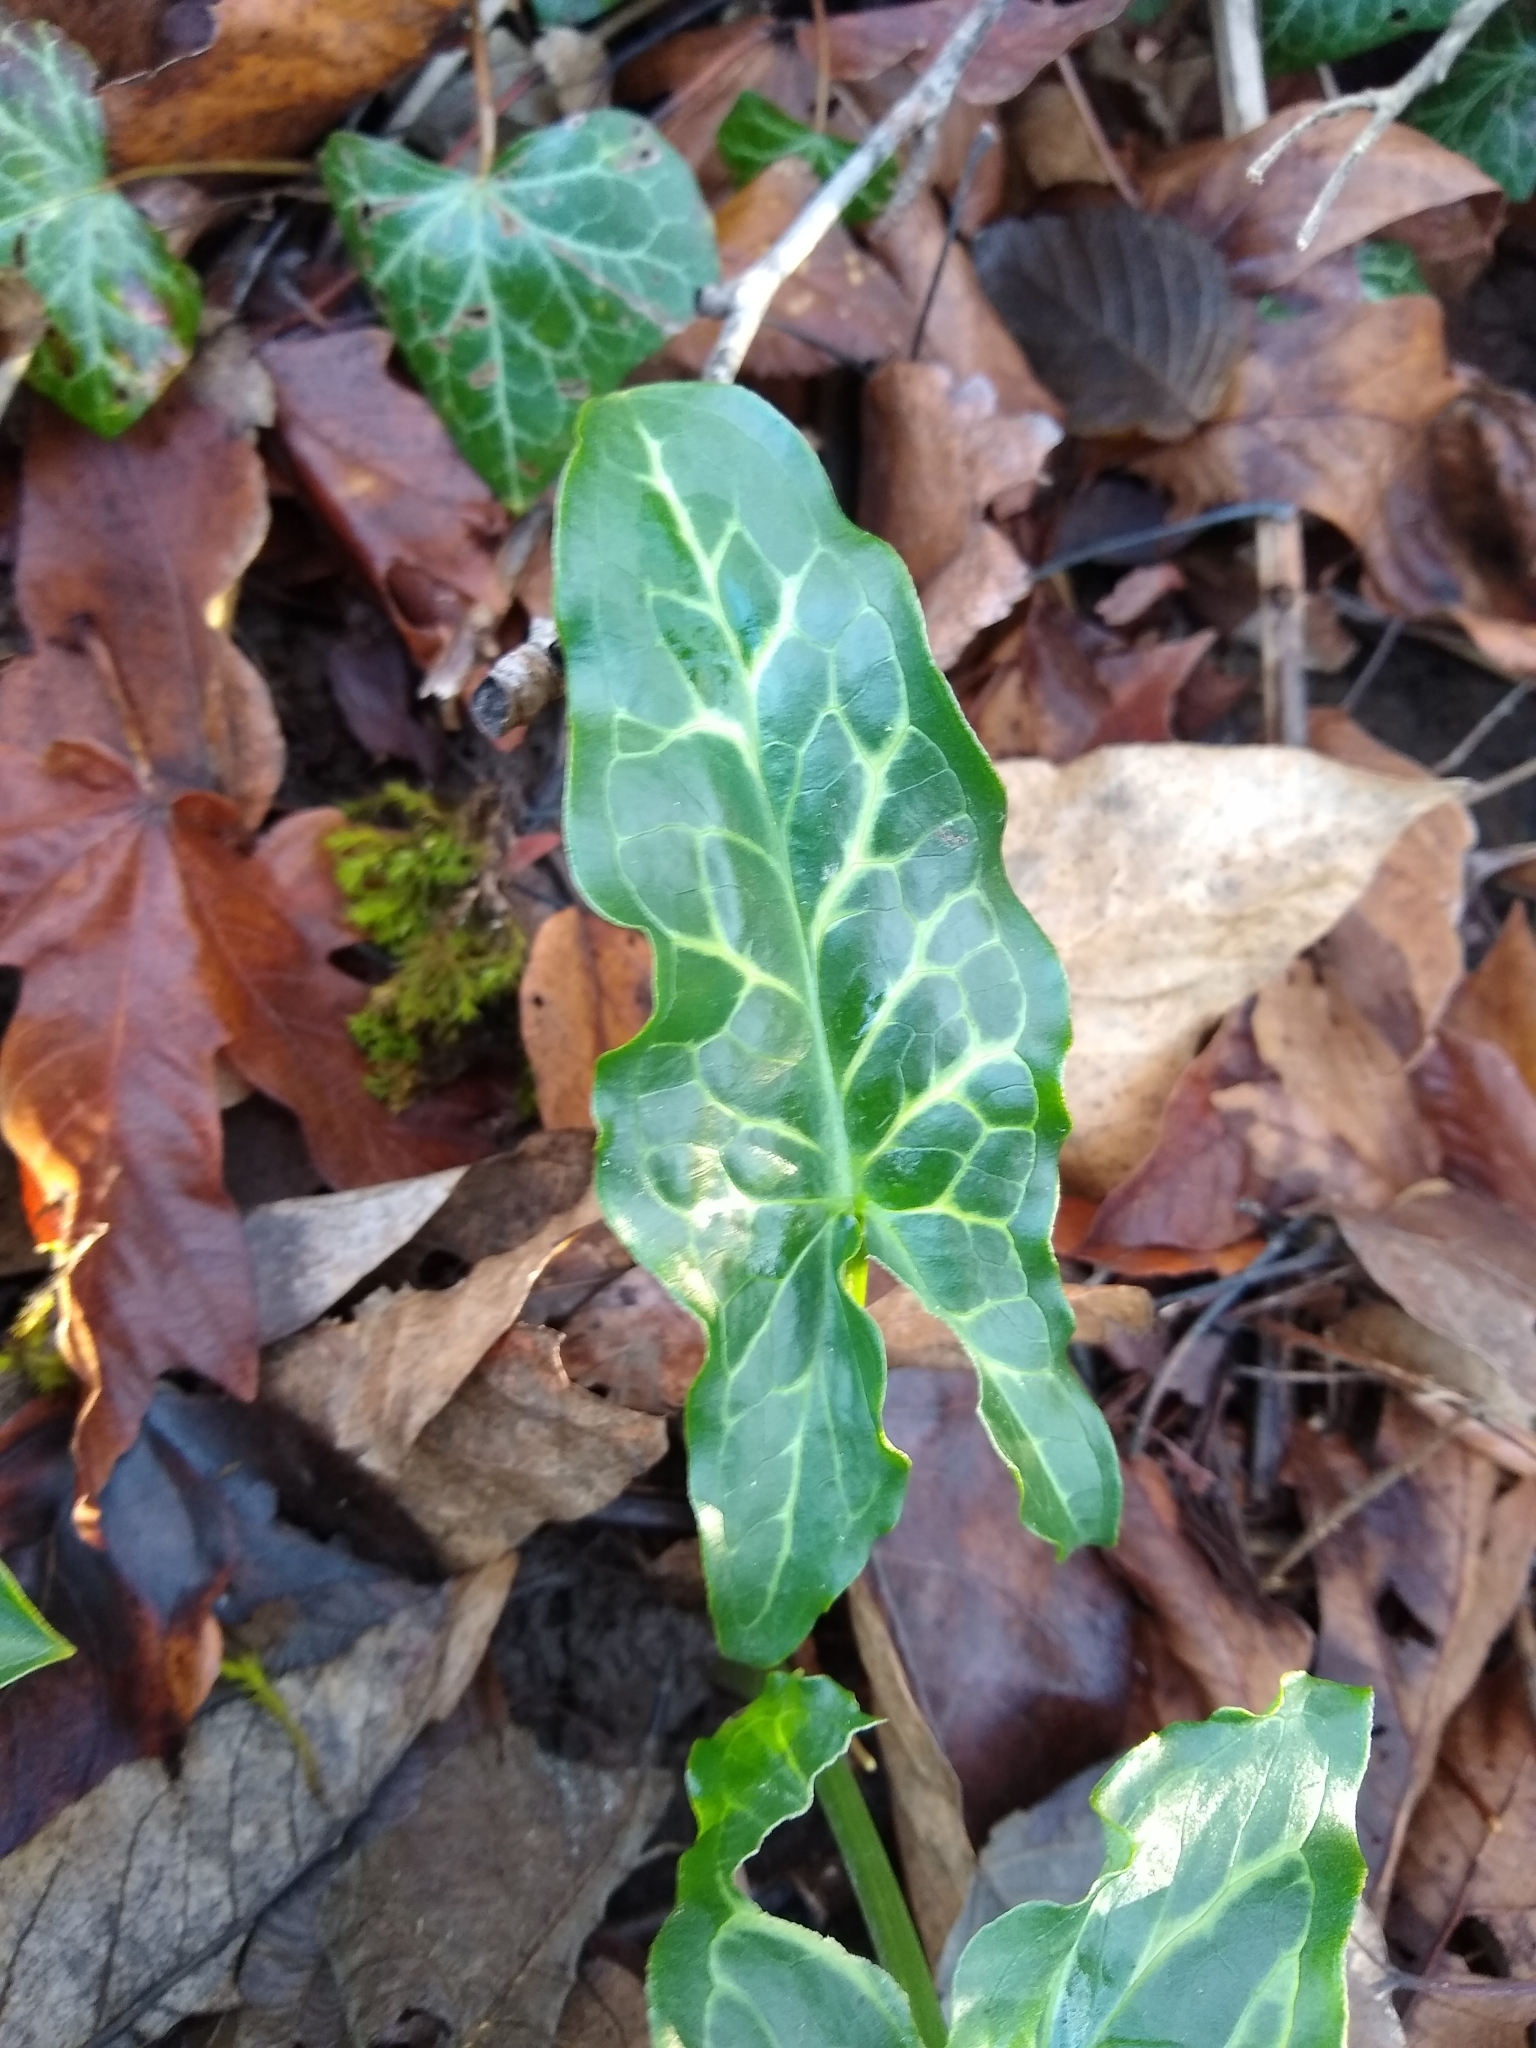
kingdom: Plantae
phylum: Tracheophyta
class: Liliopsida
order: Alismatales
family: Araceae
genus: Arum
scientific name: Arum italicum
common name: Italian lords-and-ladies
